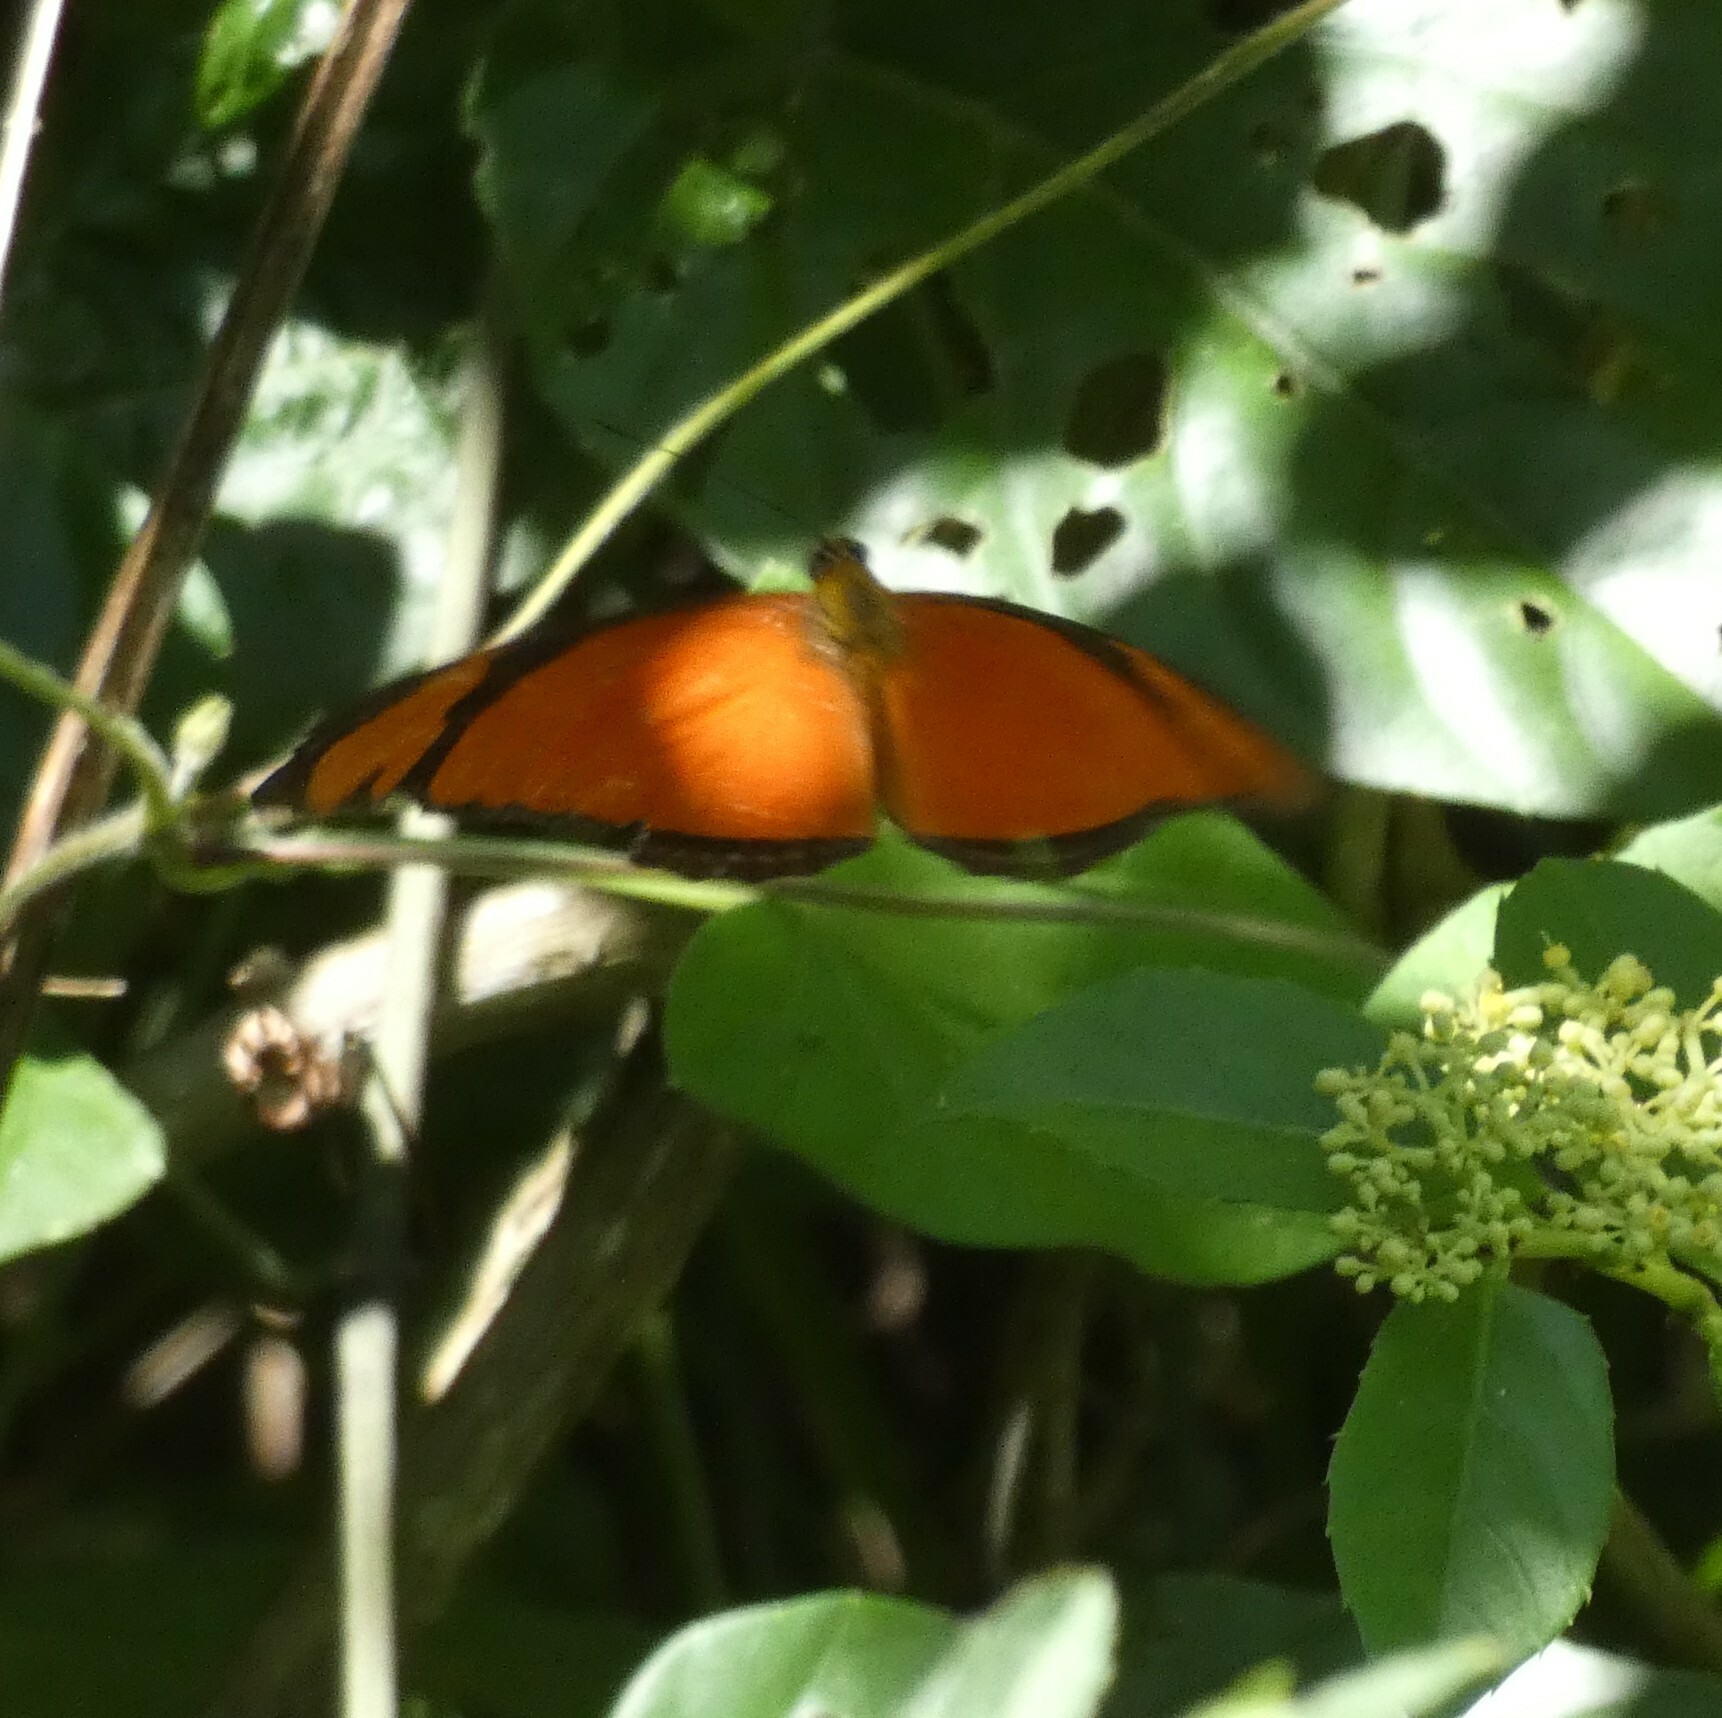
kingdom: Animalia
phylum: Arthropoda
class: Insecta
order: Lepidoptera
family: Nymphalidae
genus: Dryas
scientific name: Dryas iulia
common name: Flambeau
